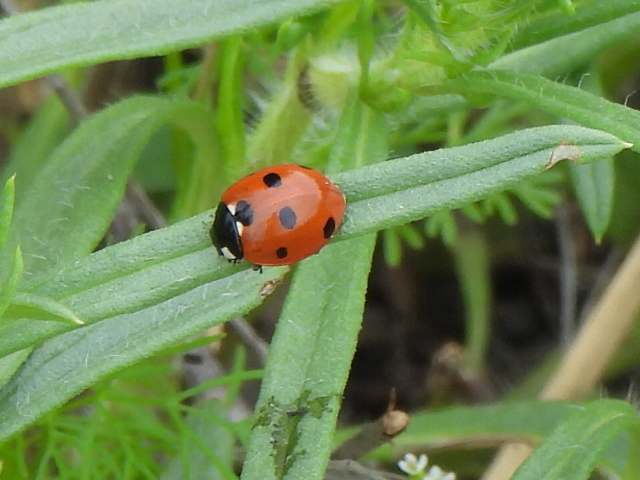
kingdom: Animalia
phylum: Arthropoda
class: Insecta
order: Coleoptera
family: Coccinellidae
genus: Coccinella
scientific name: Coccinella septempunctata
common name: Sevenspotted lady beetle
